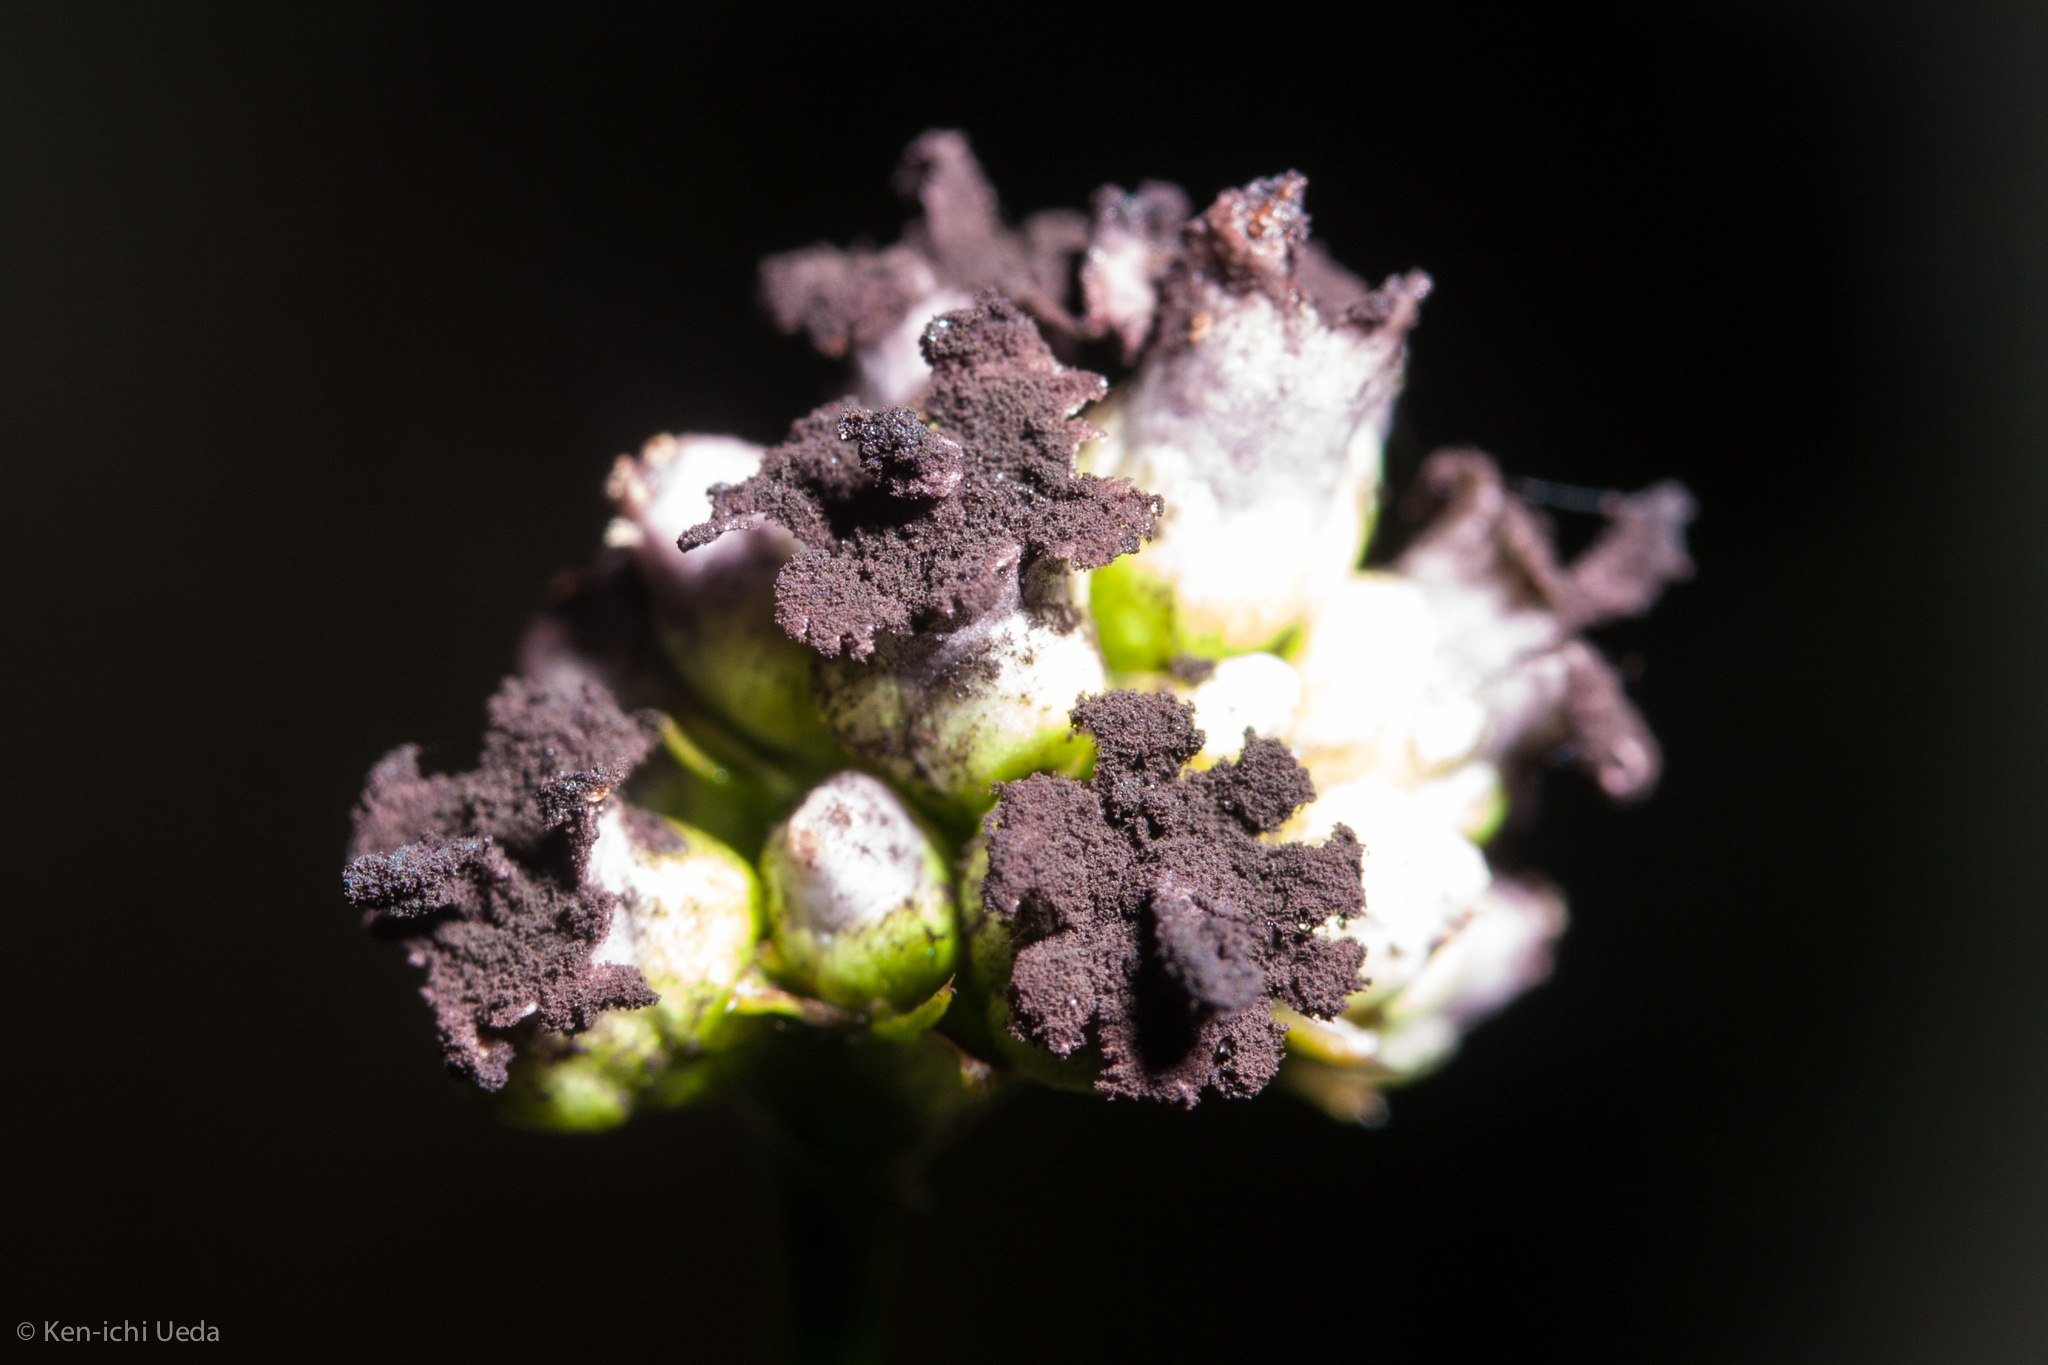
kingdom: Plantae
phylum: Tracheophyta
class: Magnoliopsida
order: Caryophyllales
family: Polygonaceae
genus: Persicaria
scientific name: Persicaria sagittata
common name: American tearthumb
